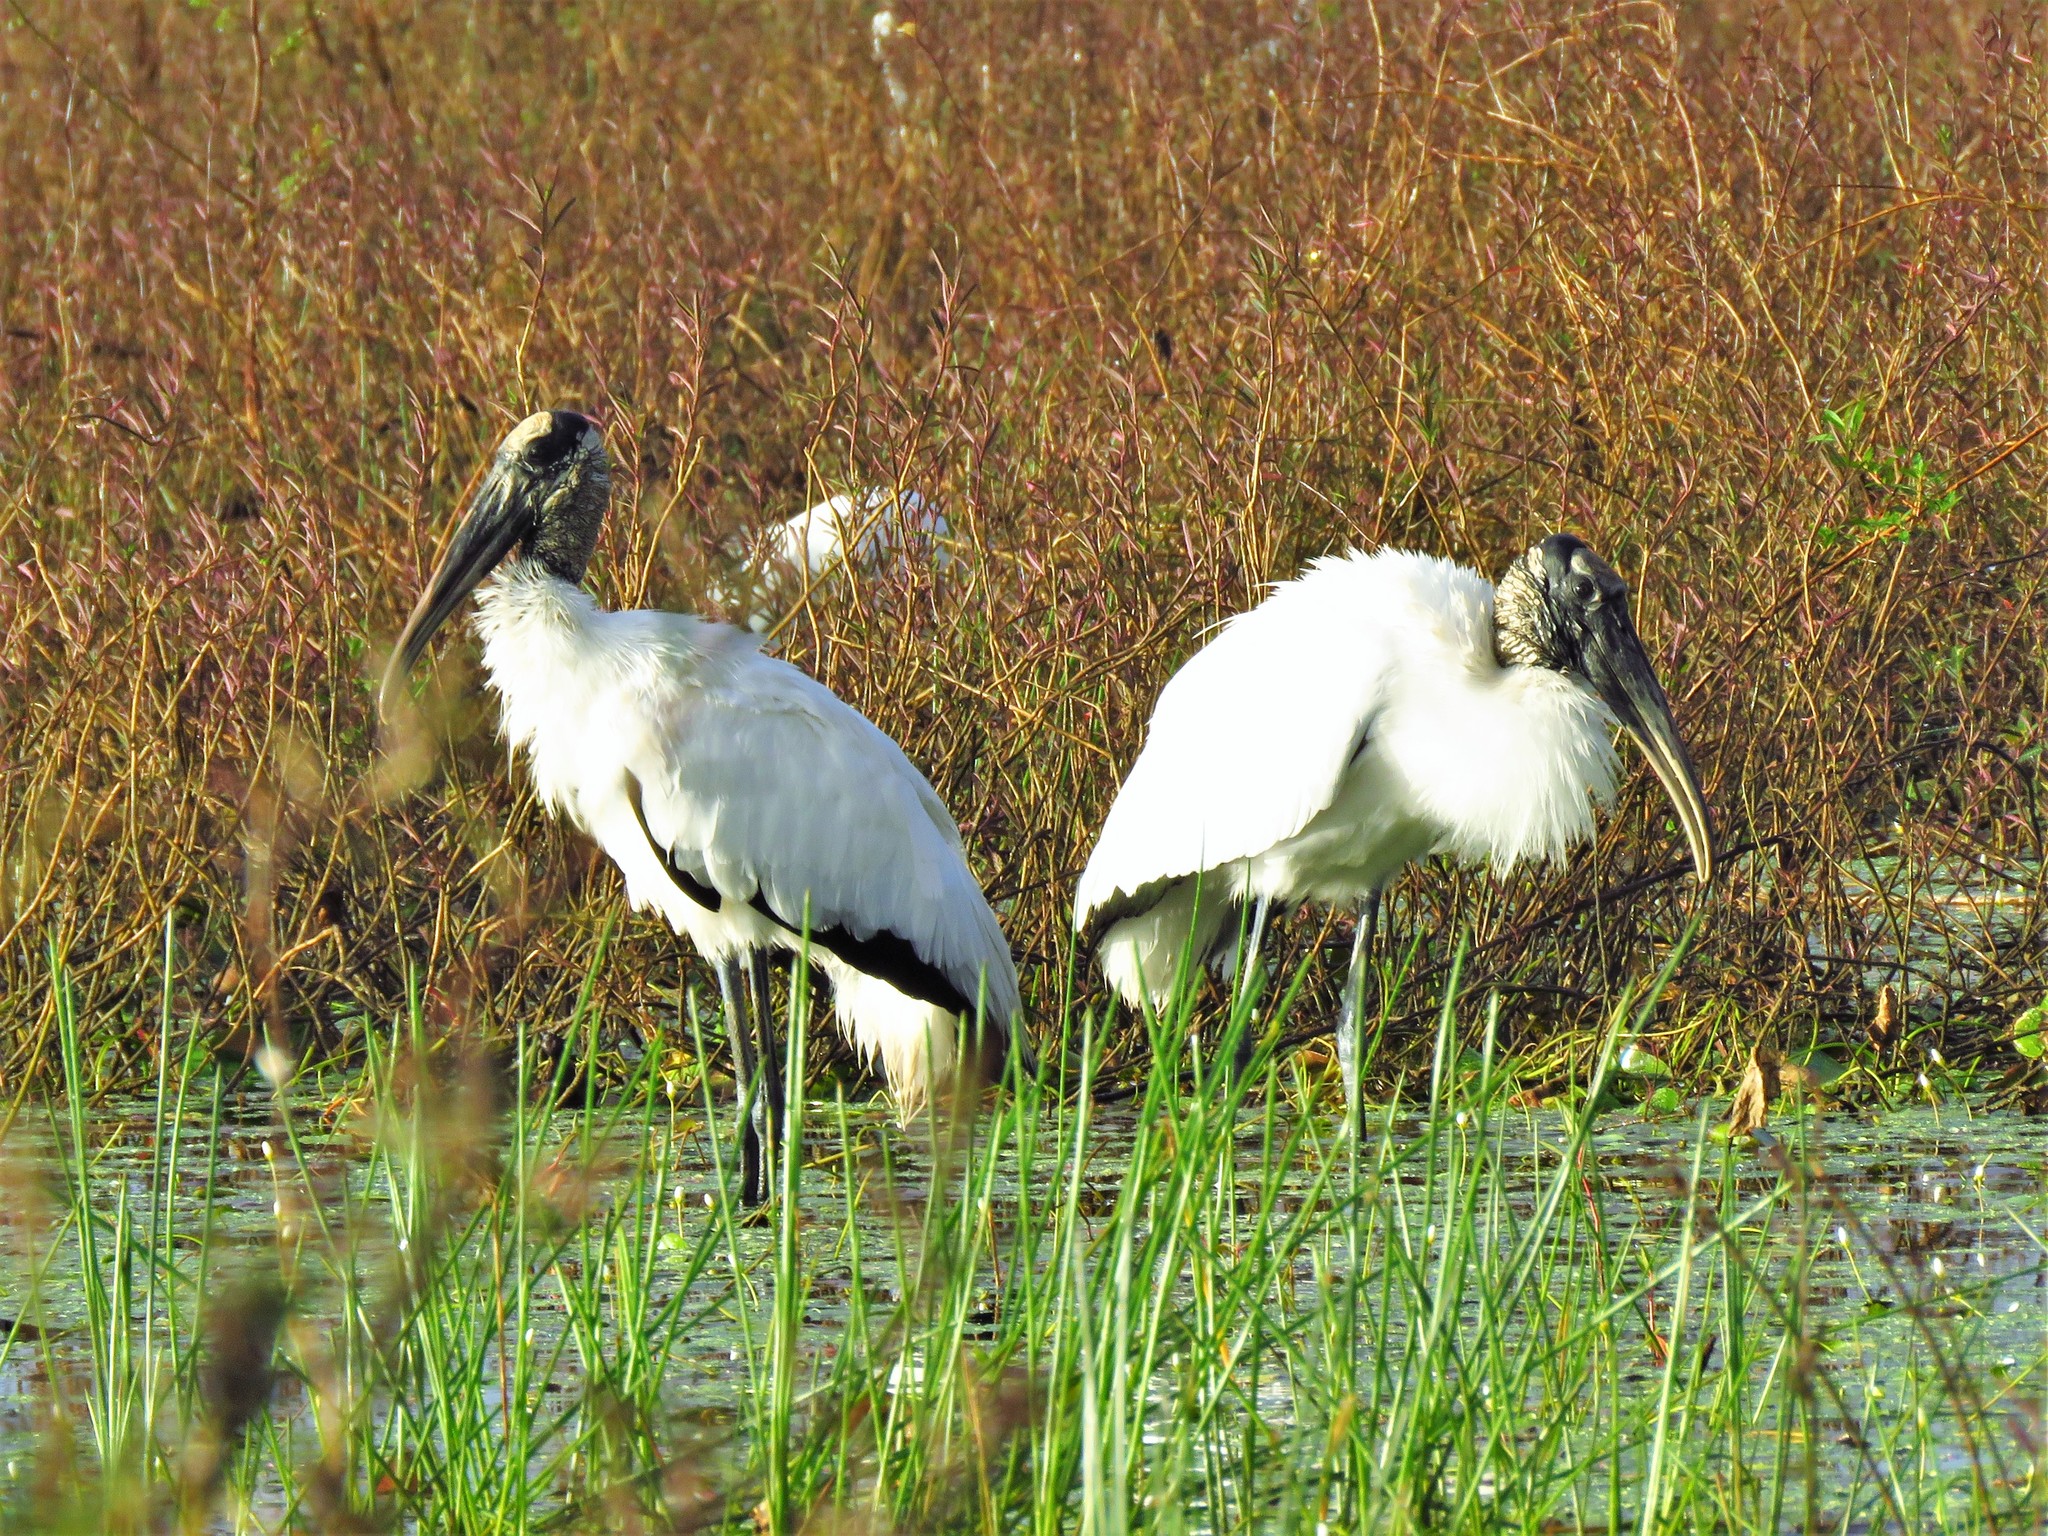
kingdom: Animalia
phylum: Chordata
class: Aves
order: Ciconiiformes
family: Ciconiidae
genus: Mycteria
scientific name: Mycteria americana
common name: Wood stork
